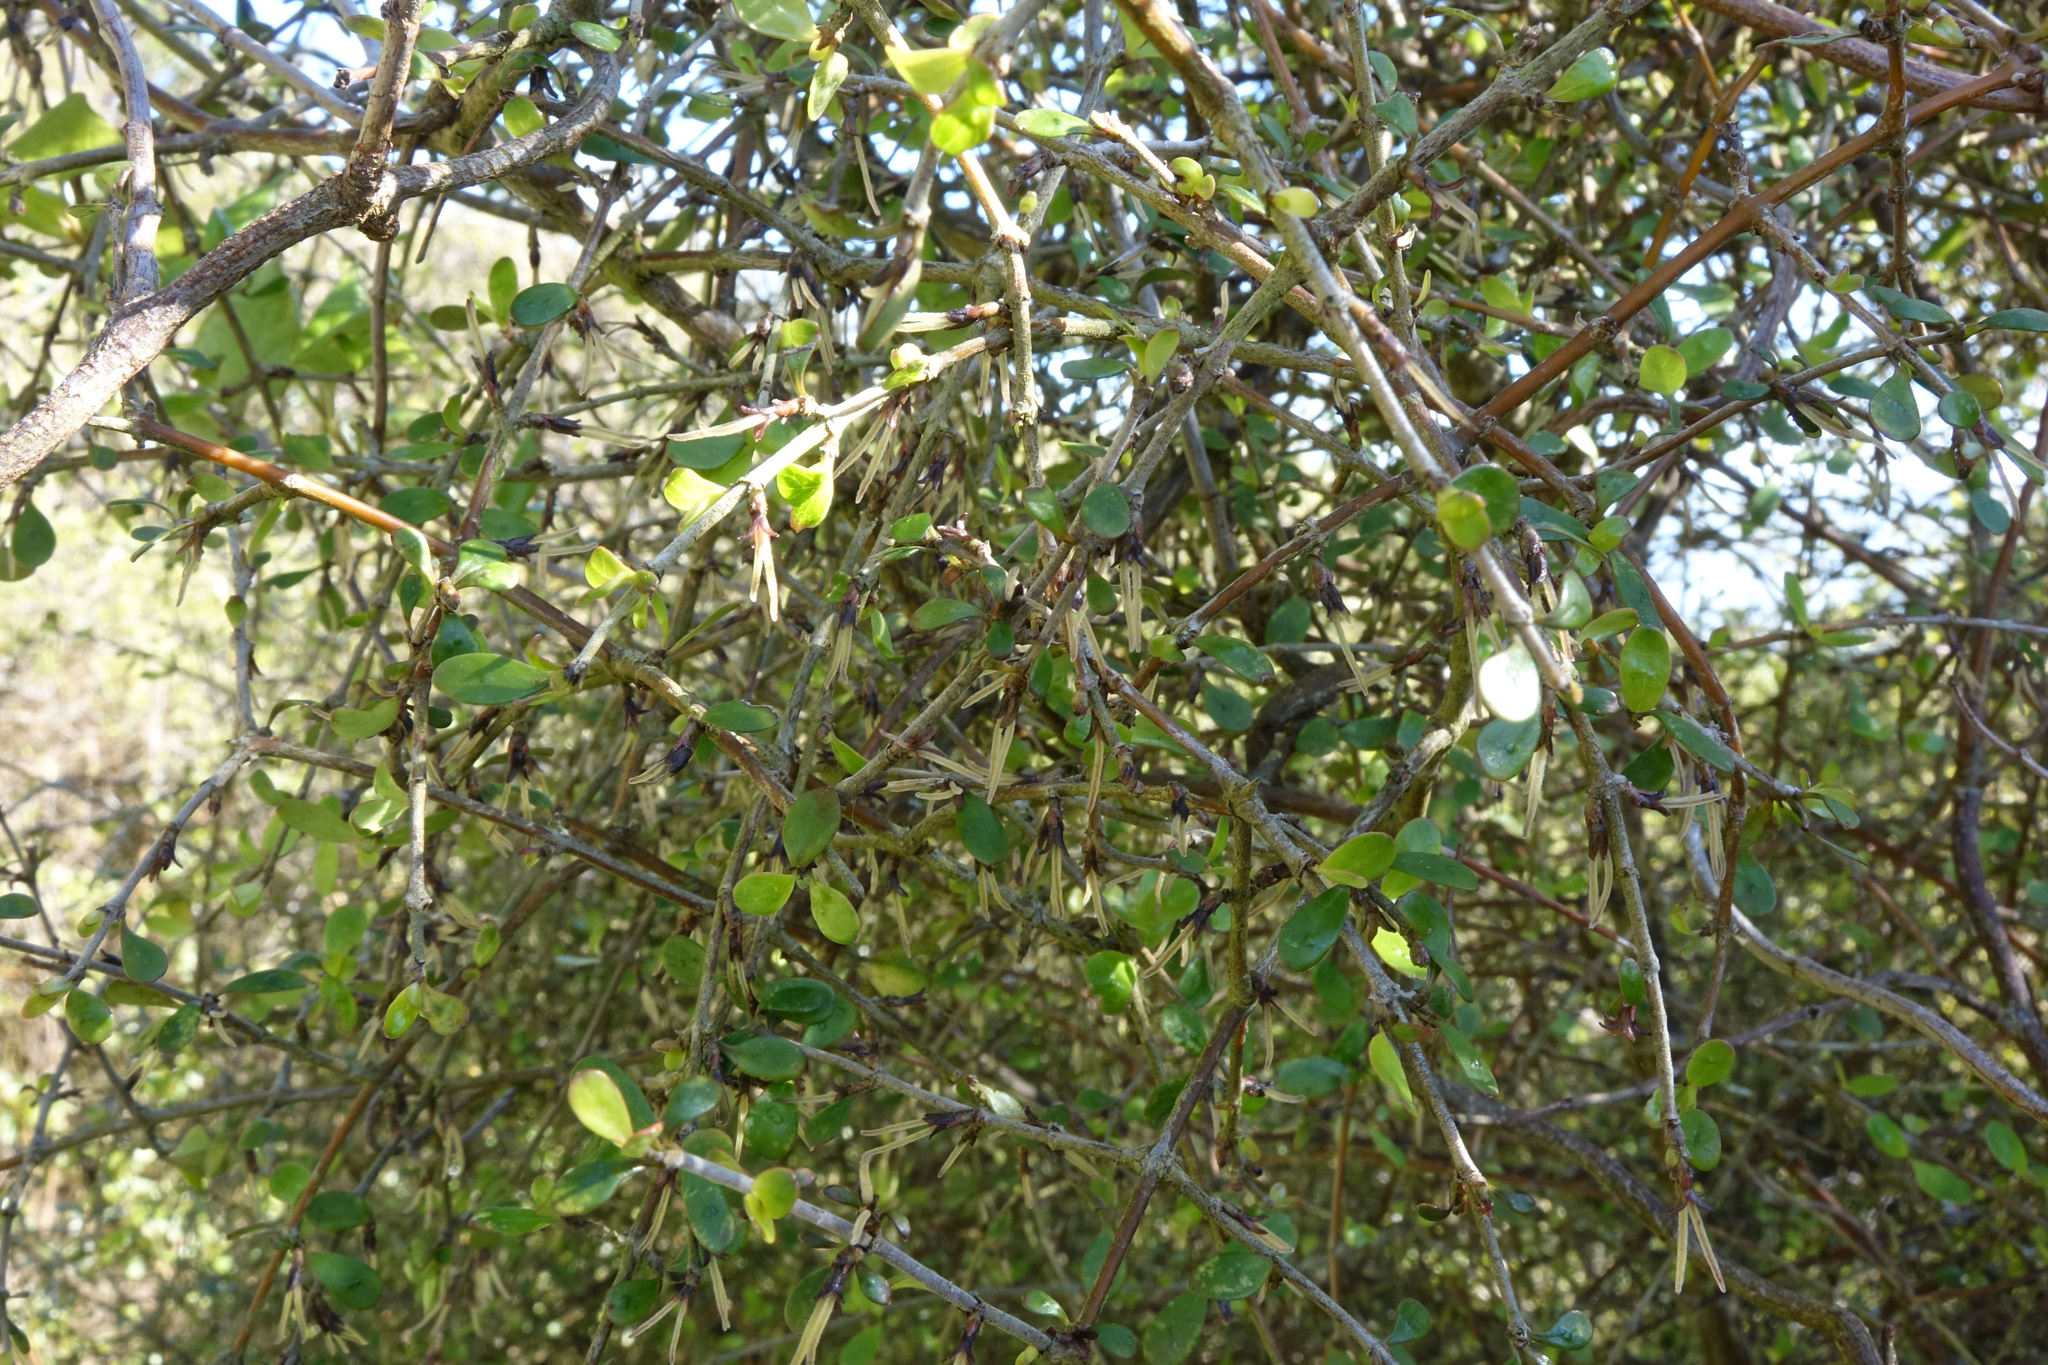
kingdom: Plantae
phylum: Tracheophyta
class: Magnoliopsida
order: Gentianales
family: Rubiaceae
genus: Coprosma
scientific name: Coprosma rigida
